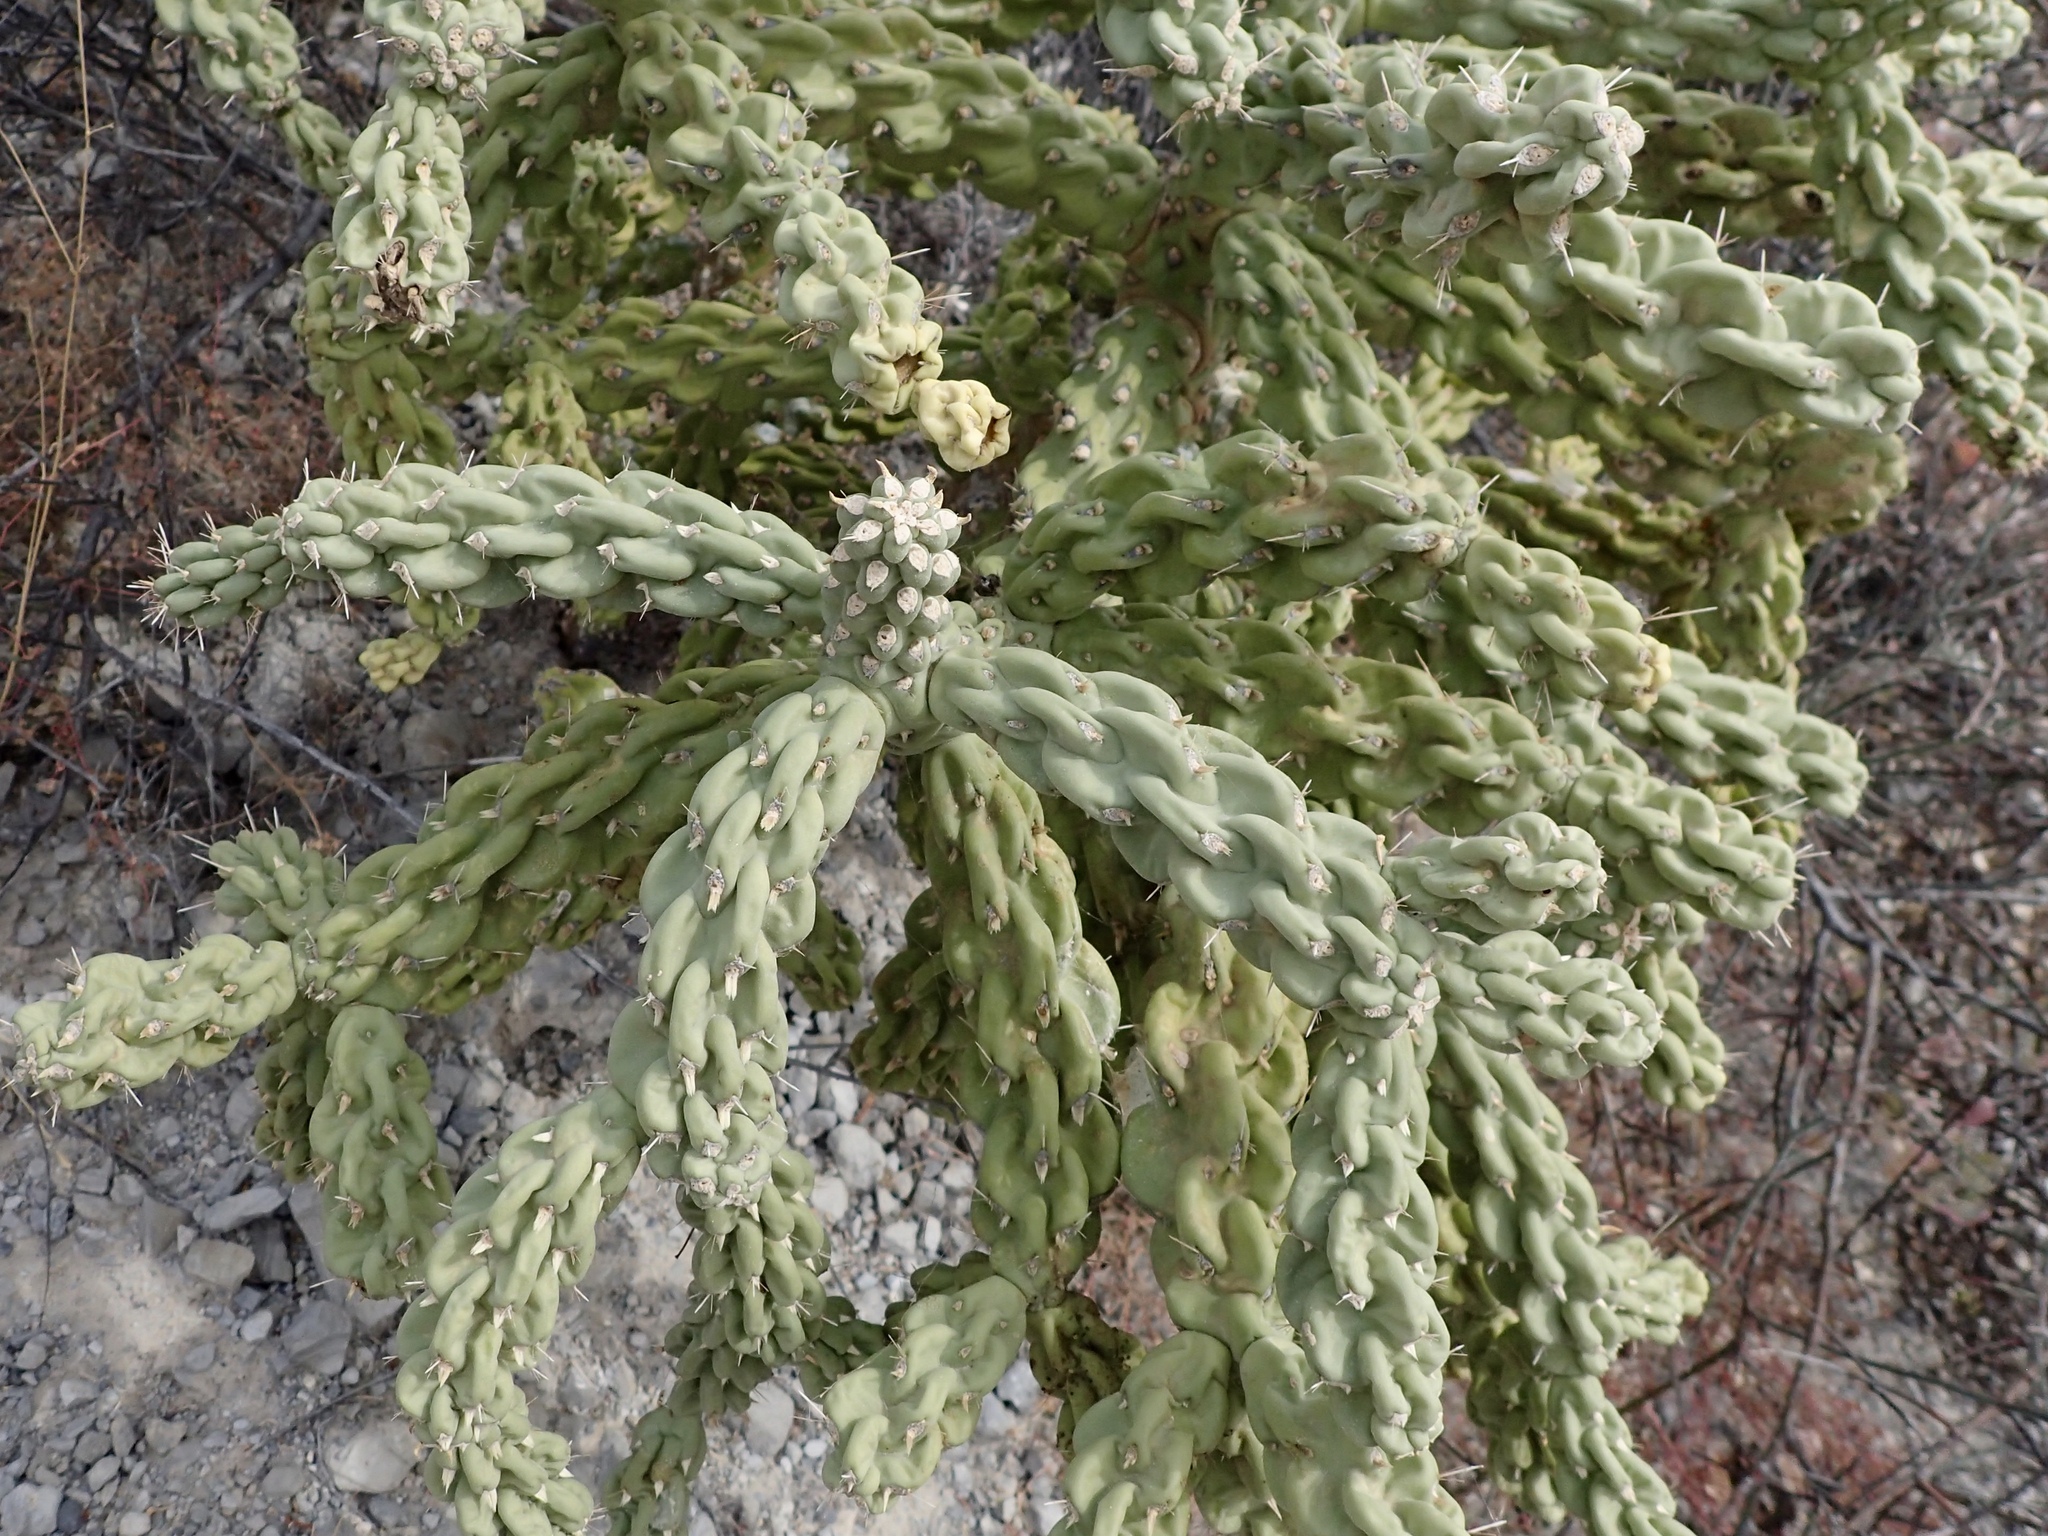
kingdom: Plantae
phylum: Tracheophyta
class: Magnoliopsida
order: Caryophyllales
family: Cactaceae
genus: Cylindropuntia
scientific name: Cylindropuntia cholla
